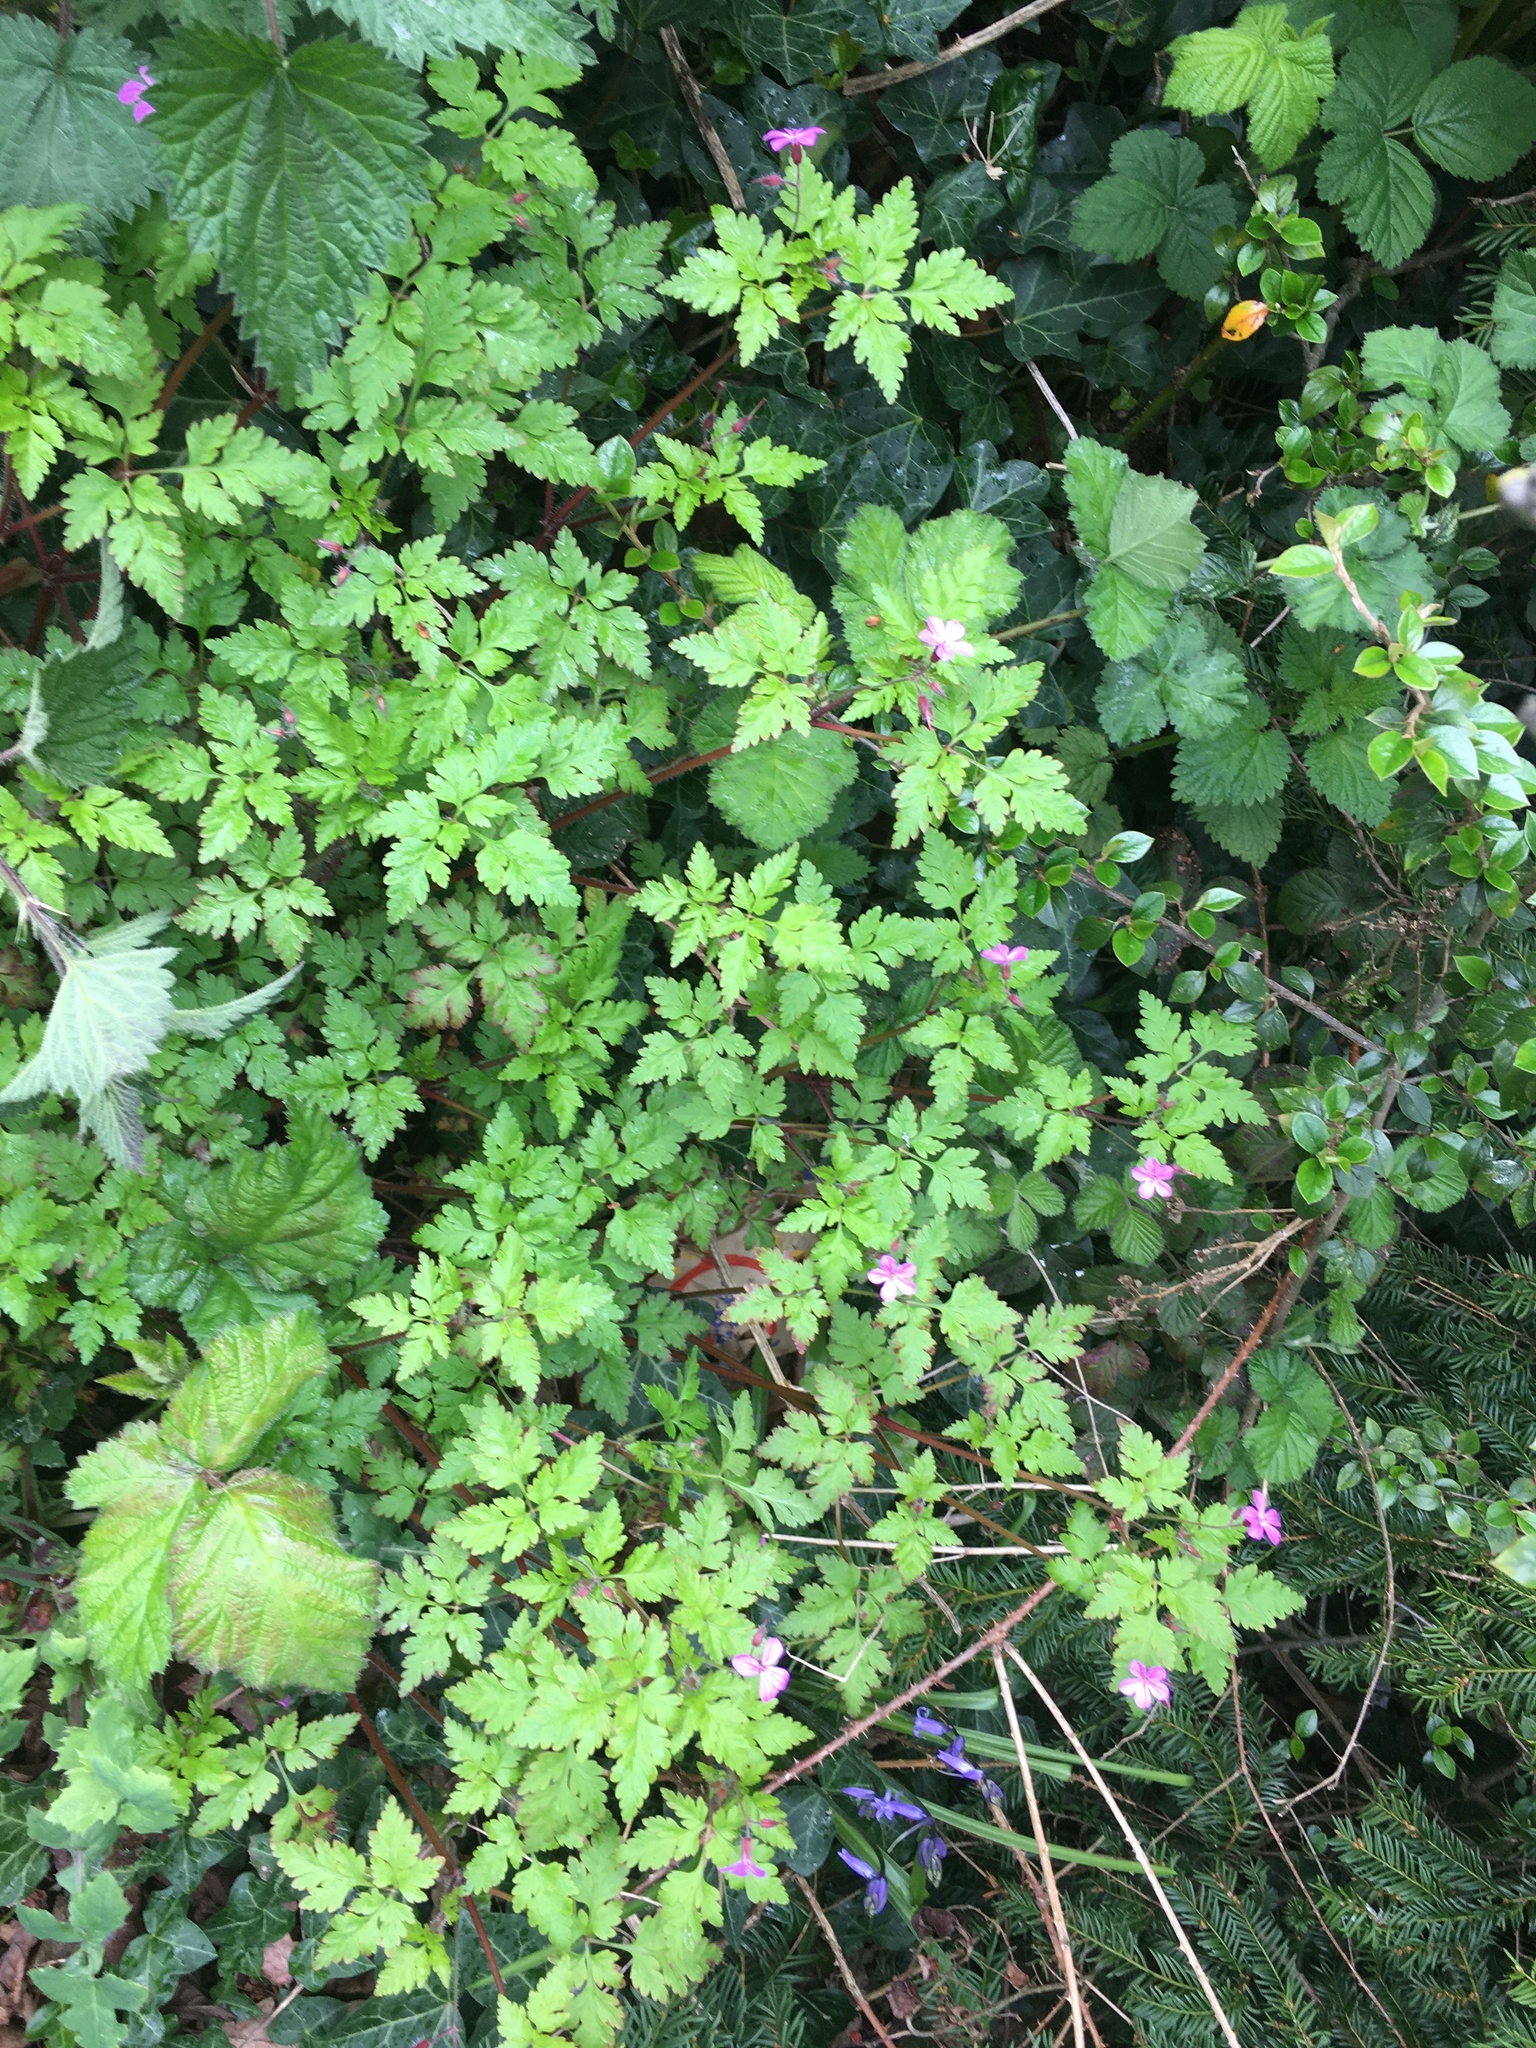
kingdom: Plantae
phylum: Tracheophyta
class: Magnoliopsida
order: Geraniales
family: Geraniaceae
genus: Geranium
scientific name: Geranium robertianum
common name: Herb-robert
